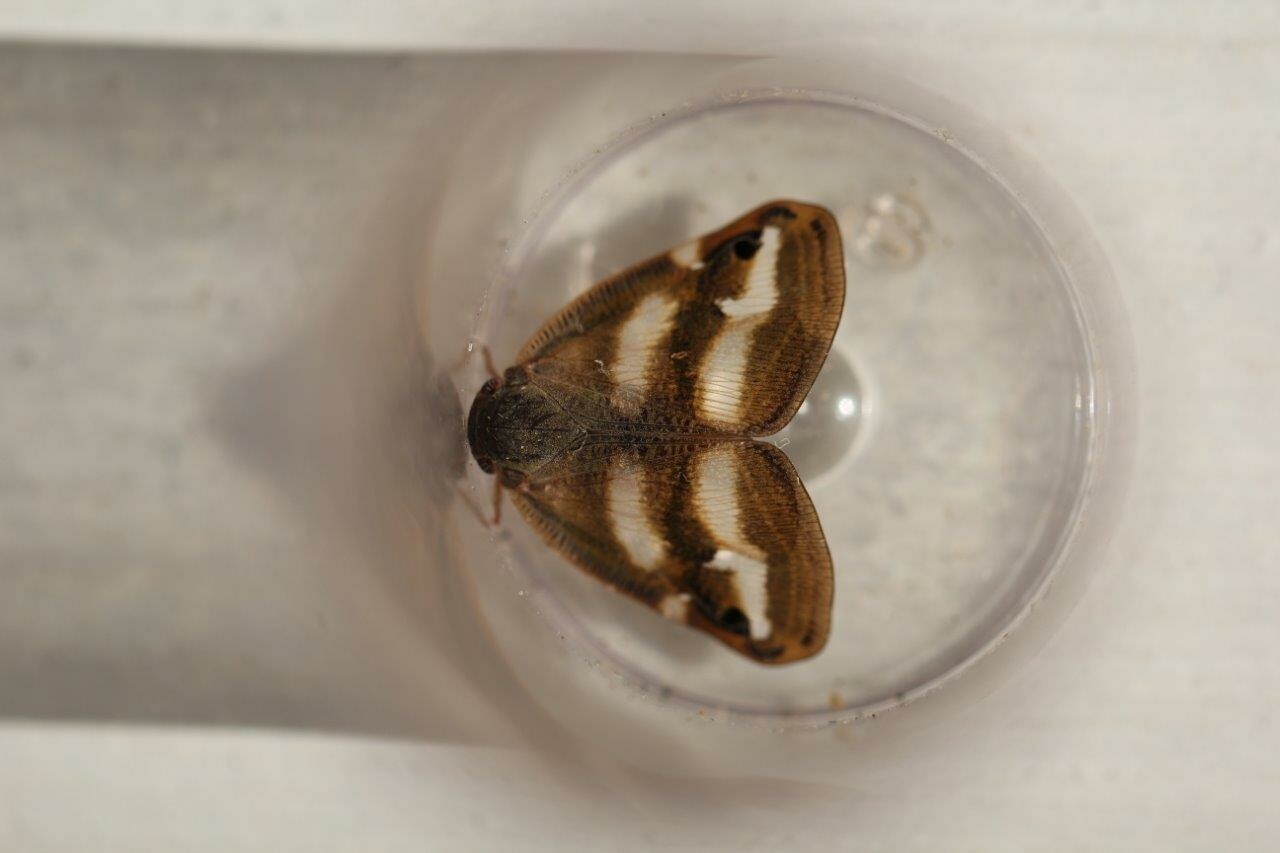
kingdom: Animalia
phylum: Arthropoda
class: Insecta
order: Hemiptera
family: Ricaniidae
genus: Orosanga
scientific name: Orosanga japonica
